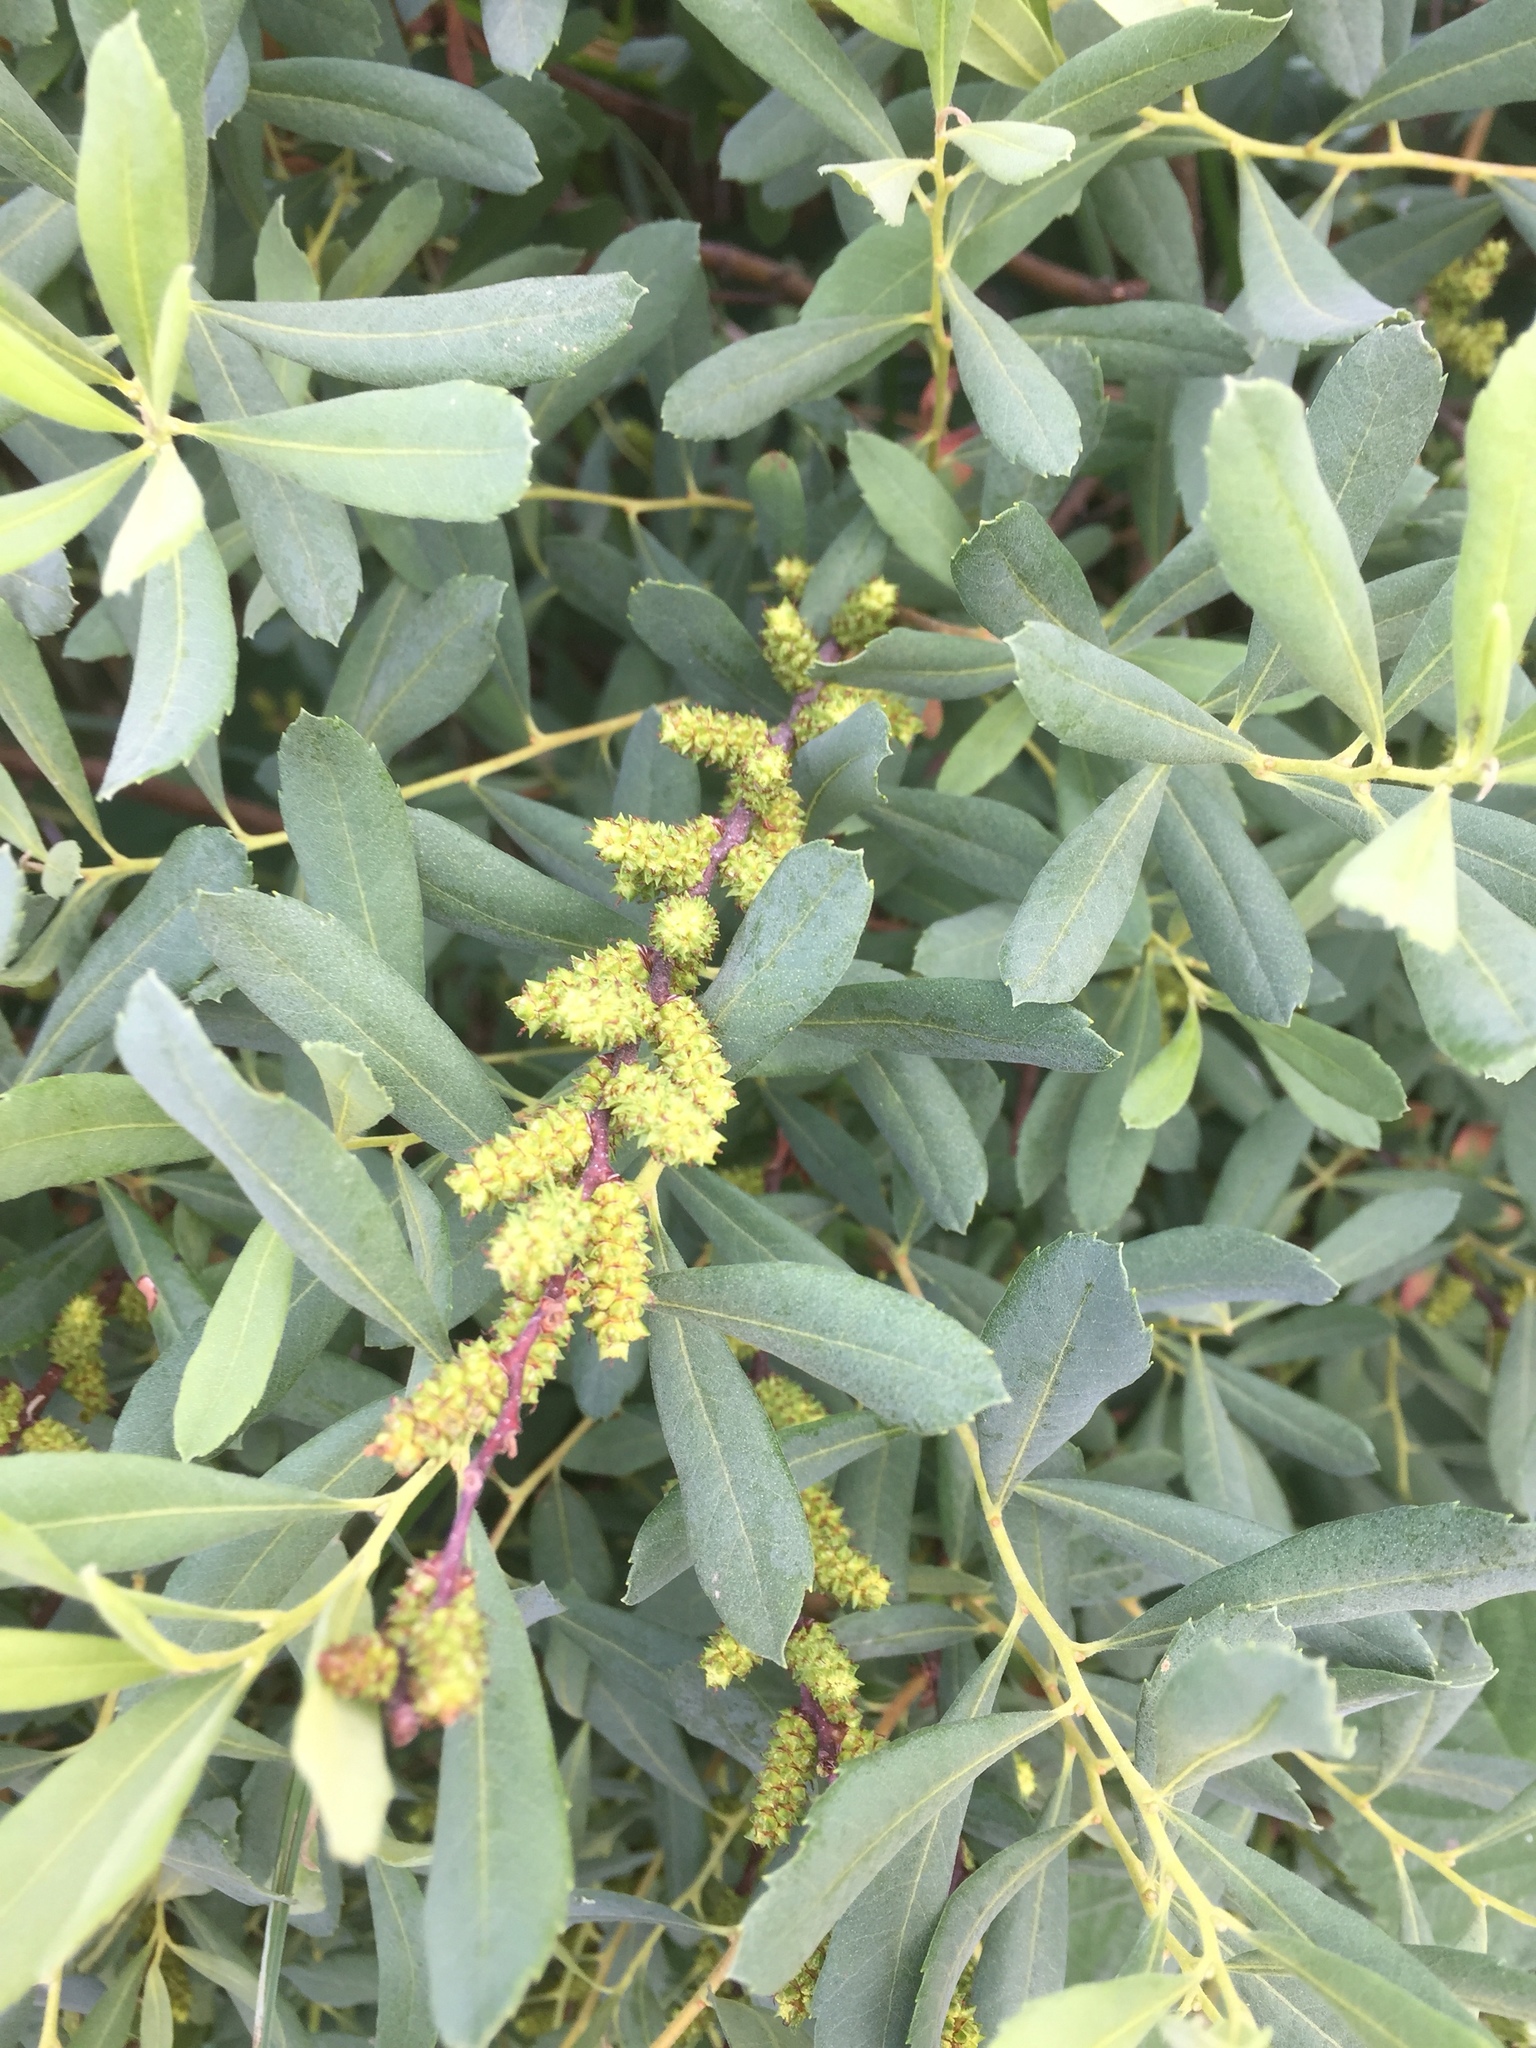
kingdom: Plantae
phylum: Tracheophyta
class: Magnoliopsida
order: Fagales
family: Myricaceae
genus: Myrica
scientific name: Myrica gale
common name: Sweet gale
